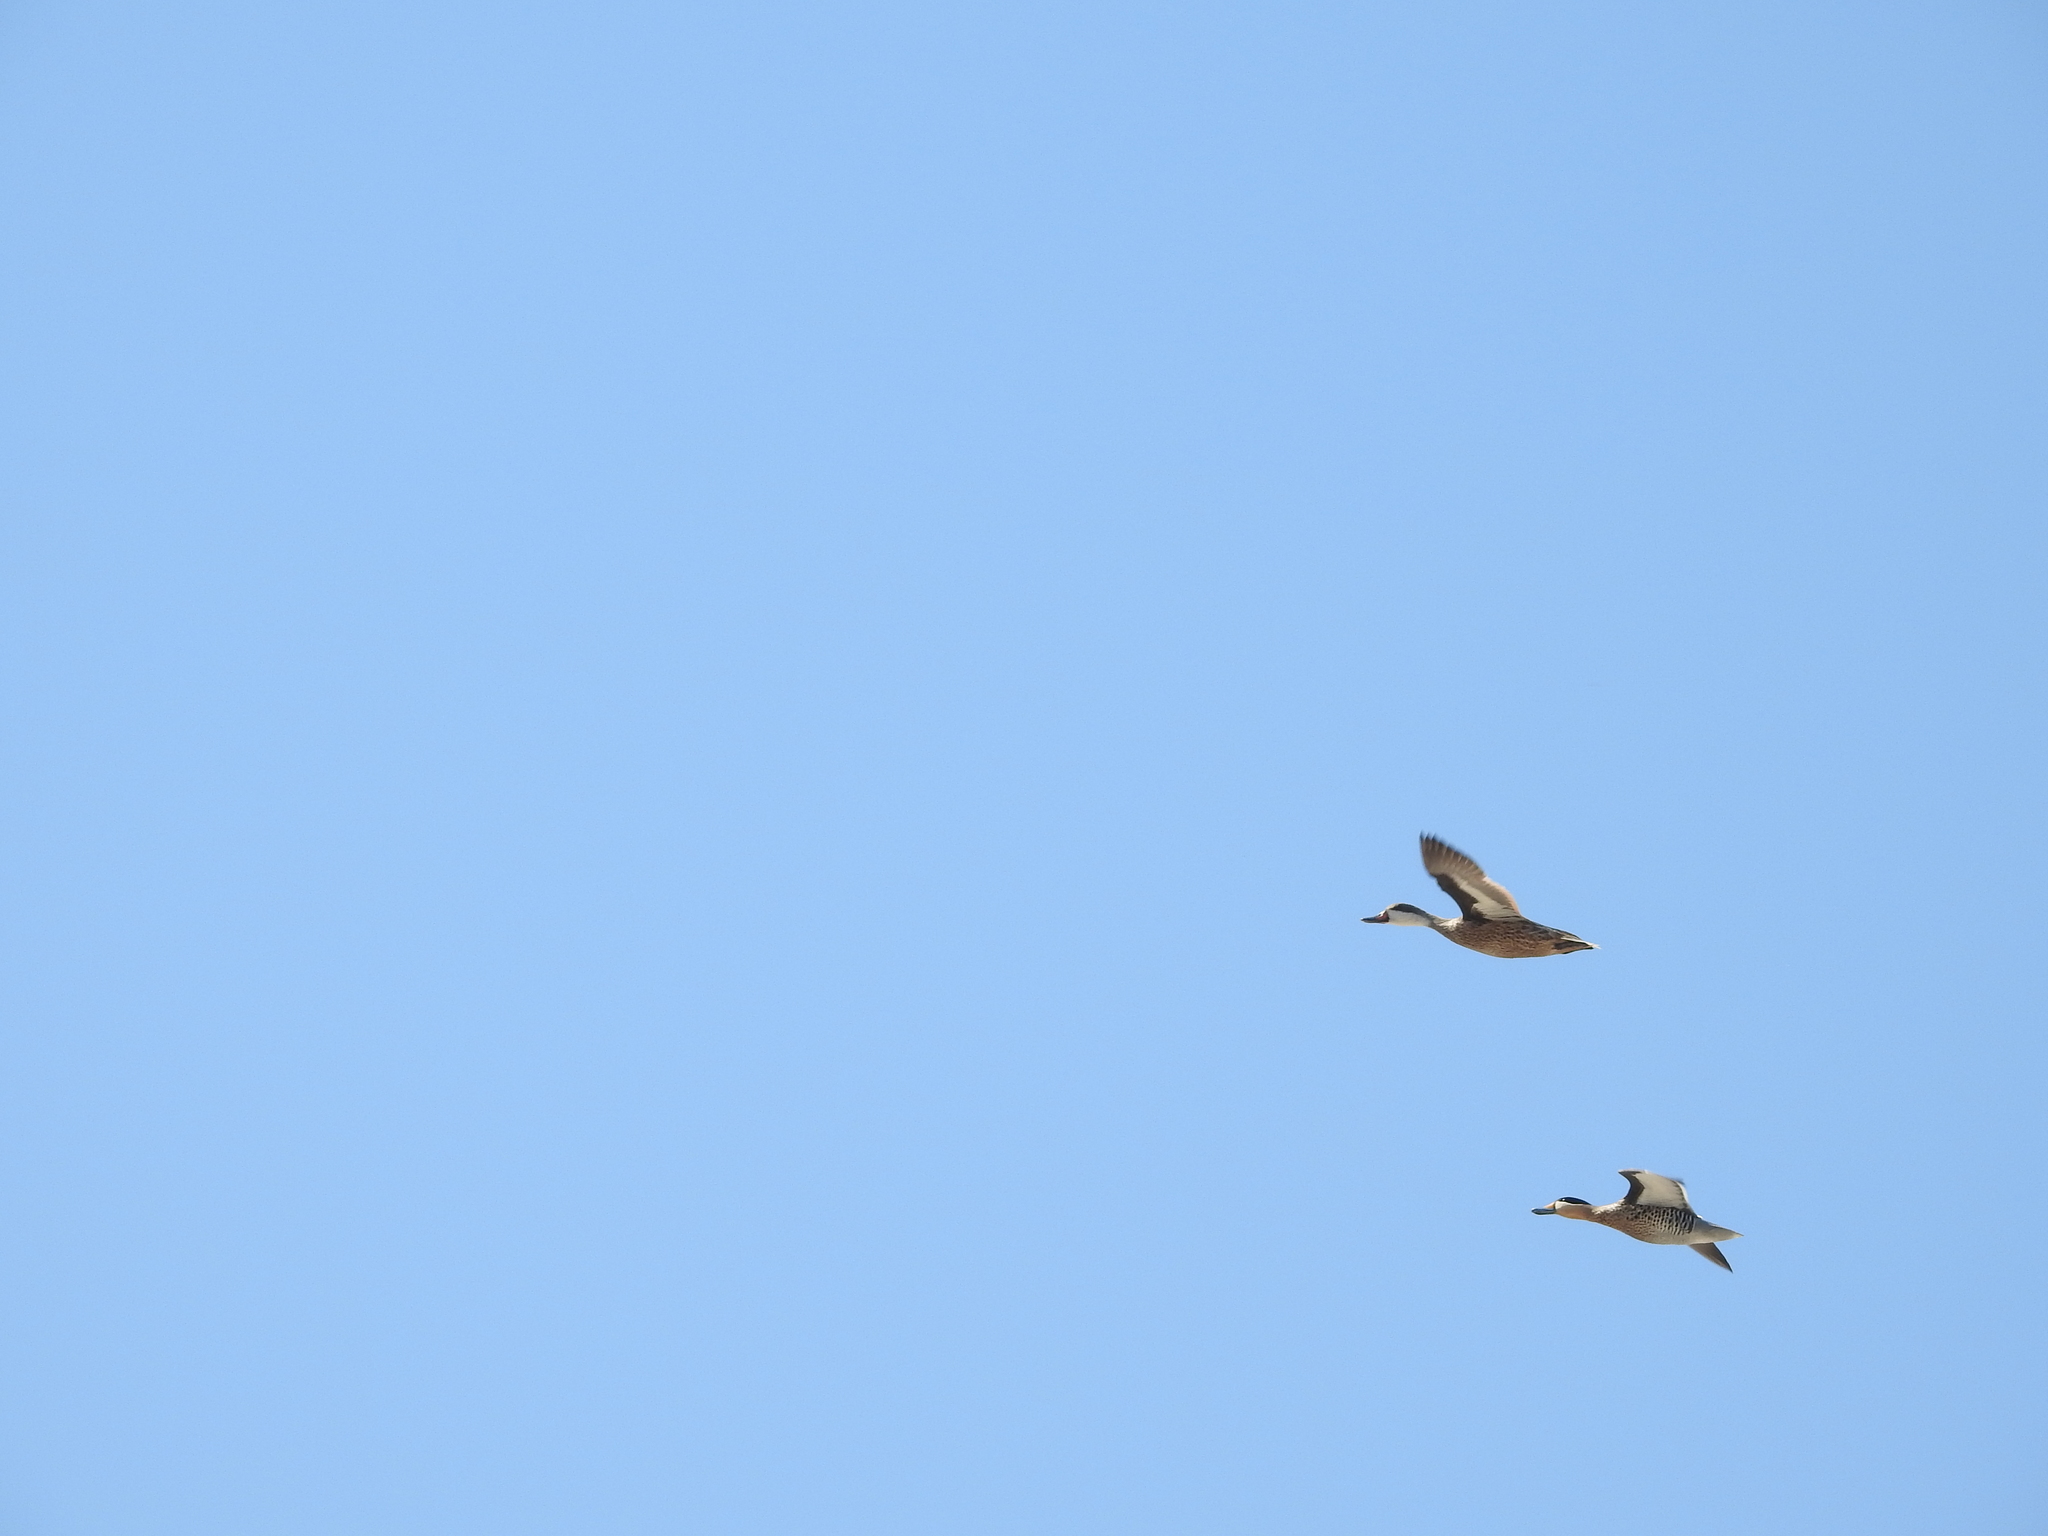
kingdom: Animalia
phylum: Chordata
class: Aves
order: Anseriformes
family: Anatidae
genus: Anas
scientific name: Anas bahamensis
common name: White-cheeked pintail
